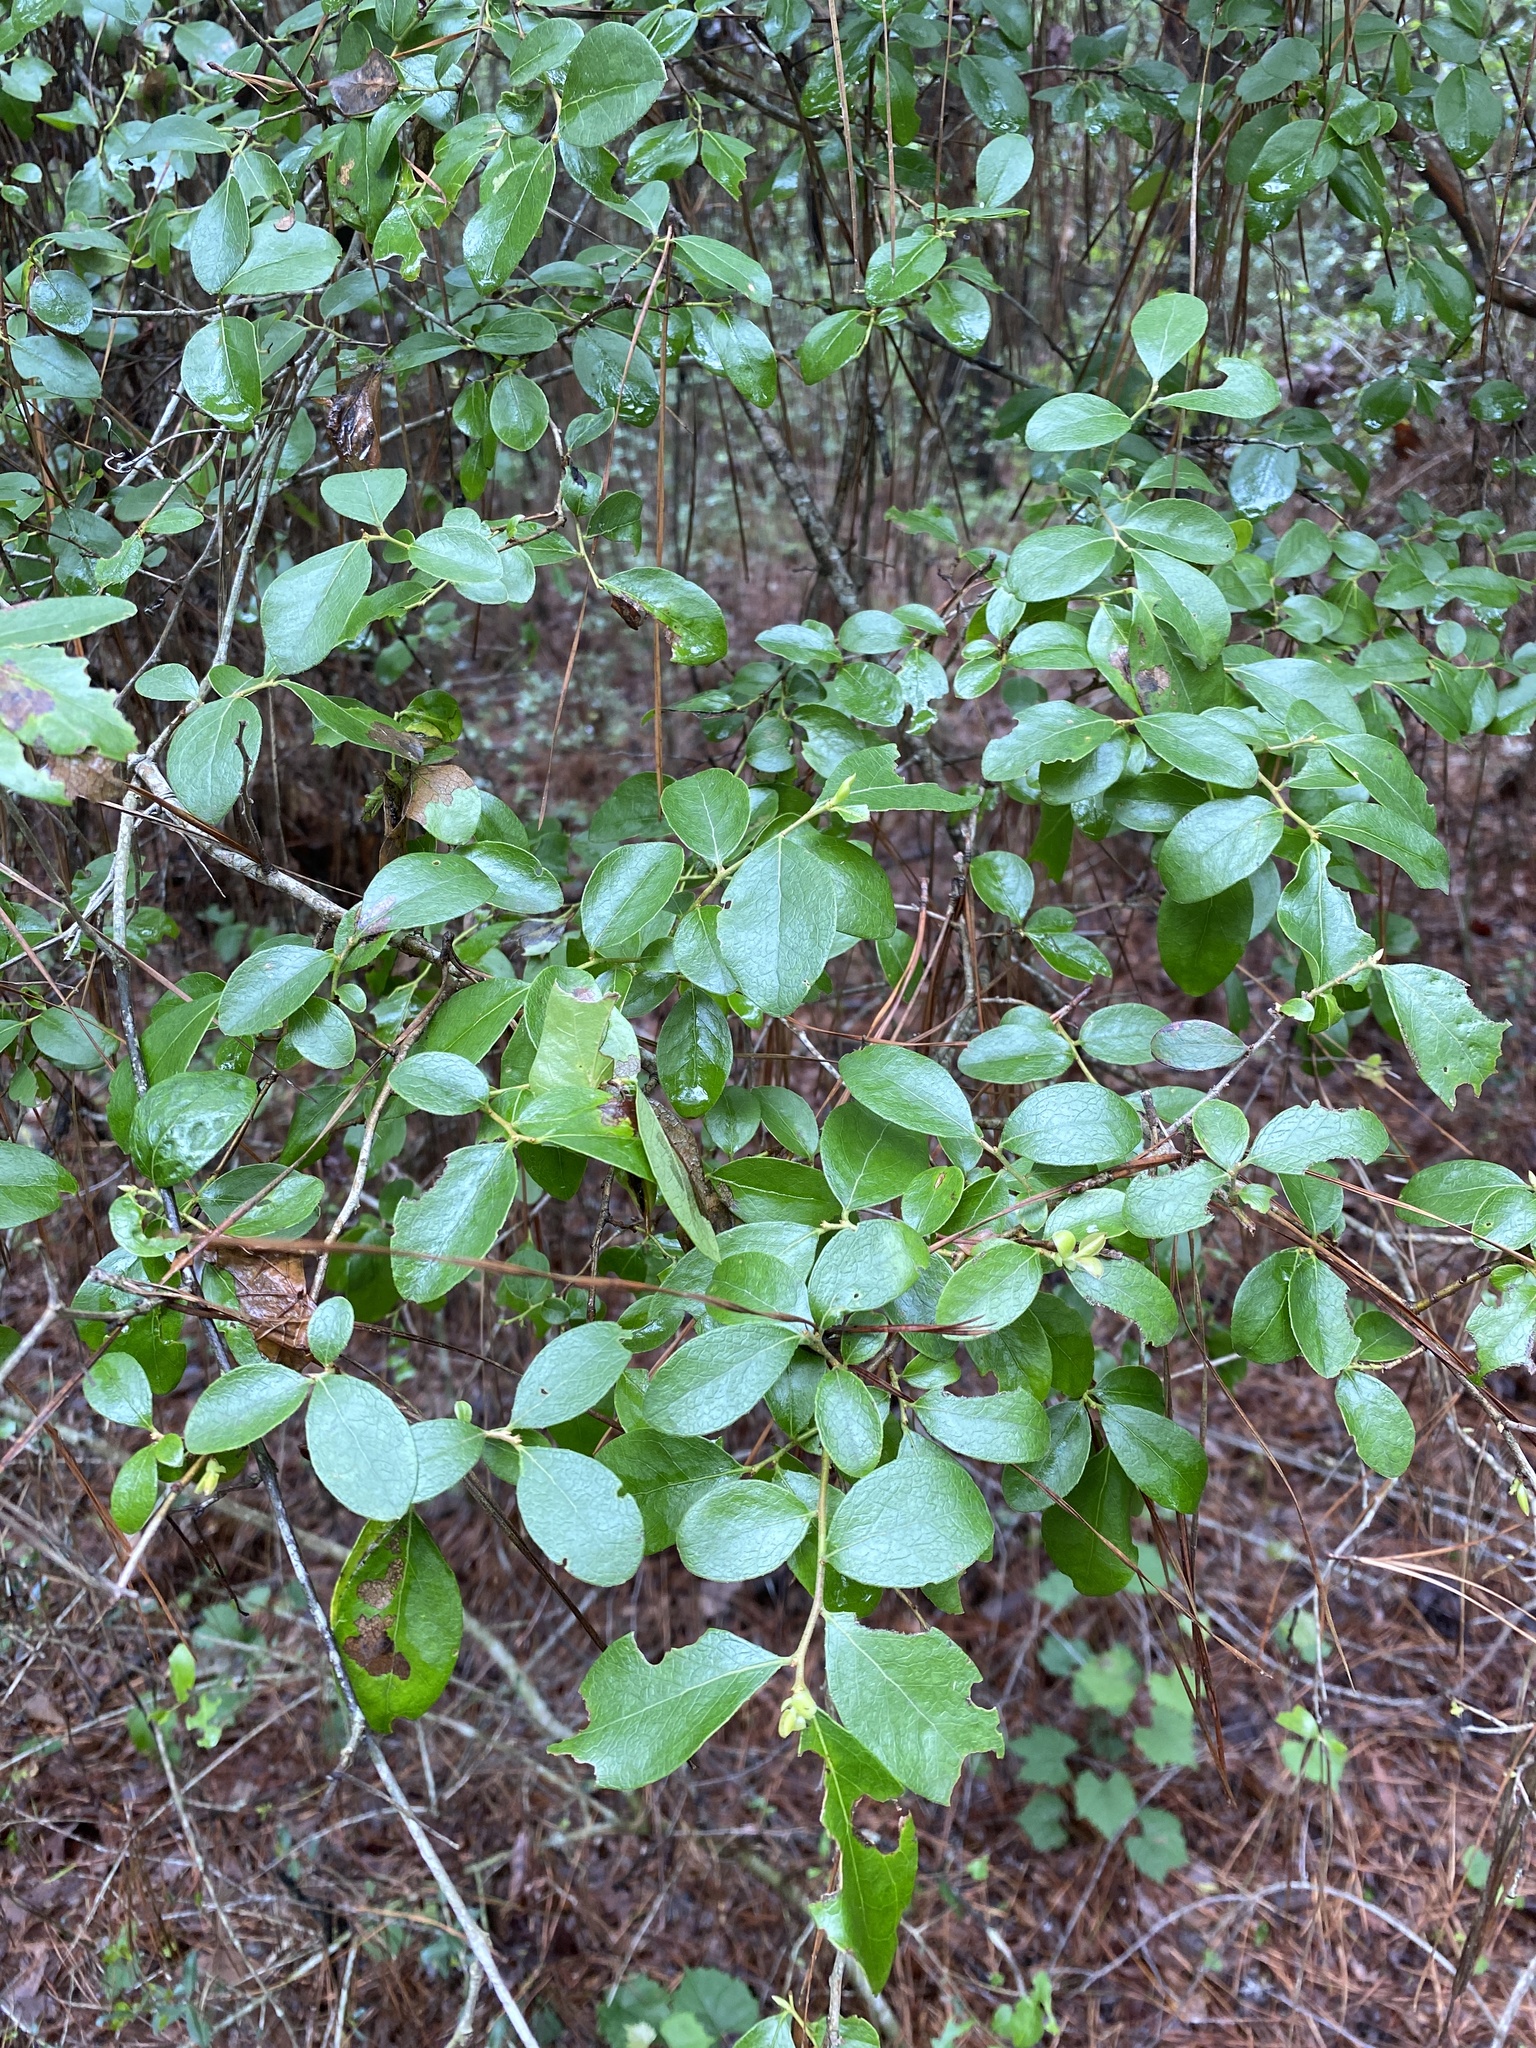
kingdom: Plantae
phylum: Tracheophyta
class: Magnoliopsida
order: Ericales
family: Ericaceae
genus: Vaccinium
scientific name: Vaccinium arboreum
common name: Farkleberry
